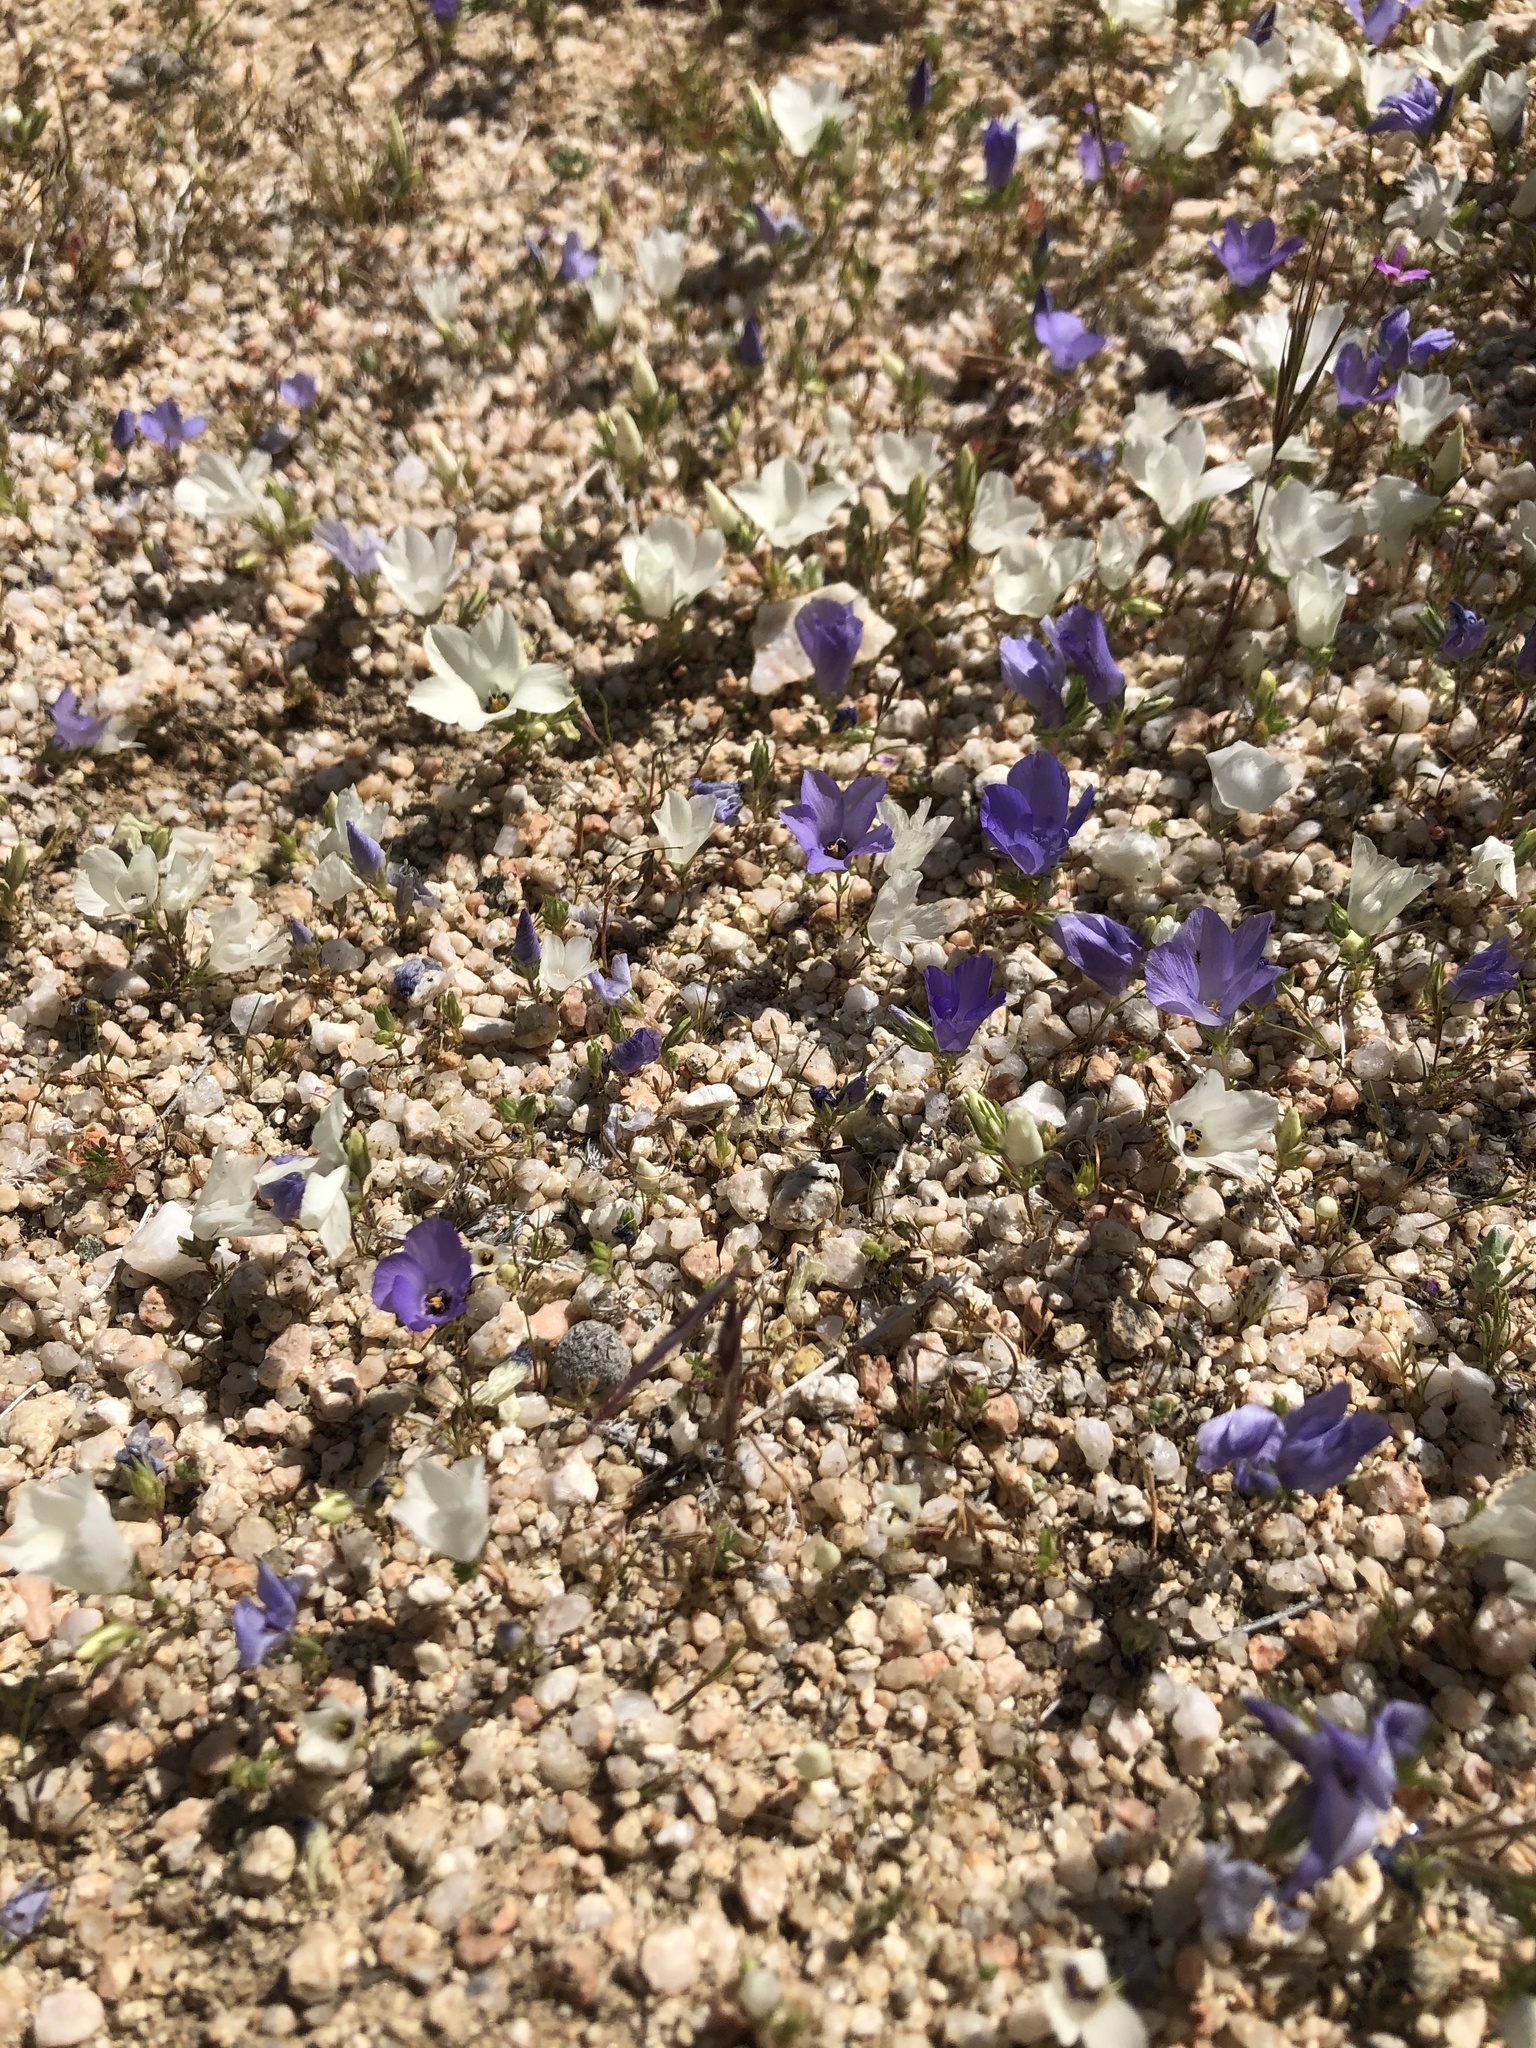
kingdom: Plantae
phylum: Tracheophyta
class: Magnoliopsida
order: Ericales
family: Polemoniaceae
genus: Linanthus
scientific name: Linanthus parryae
